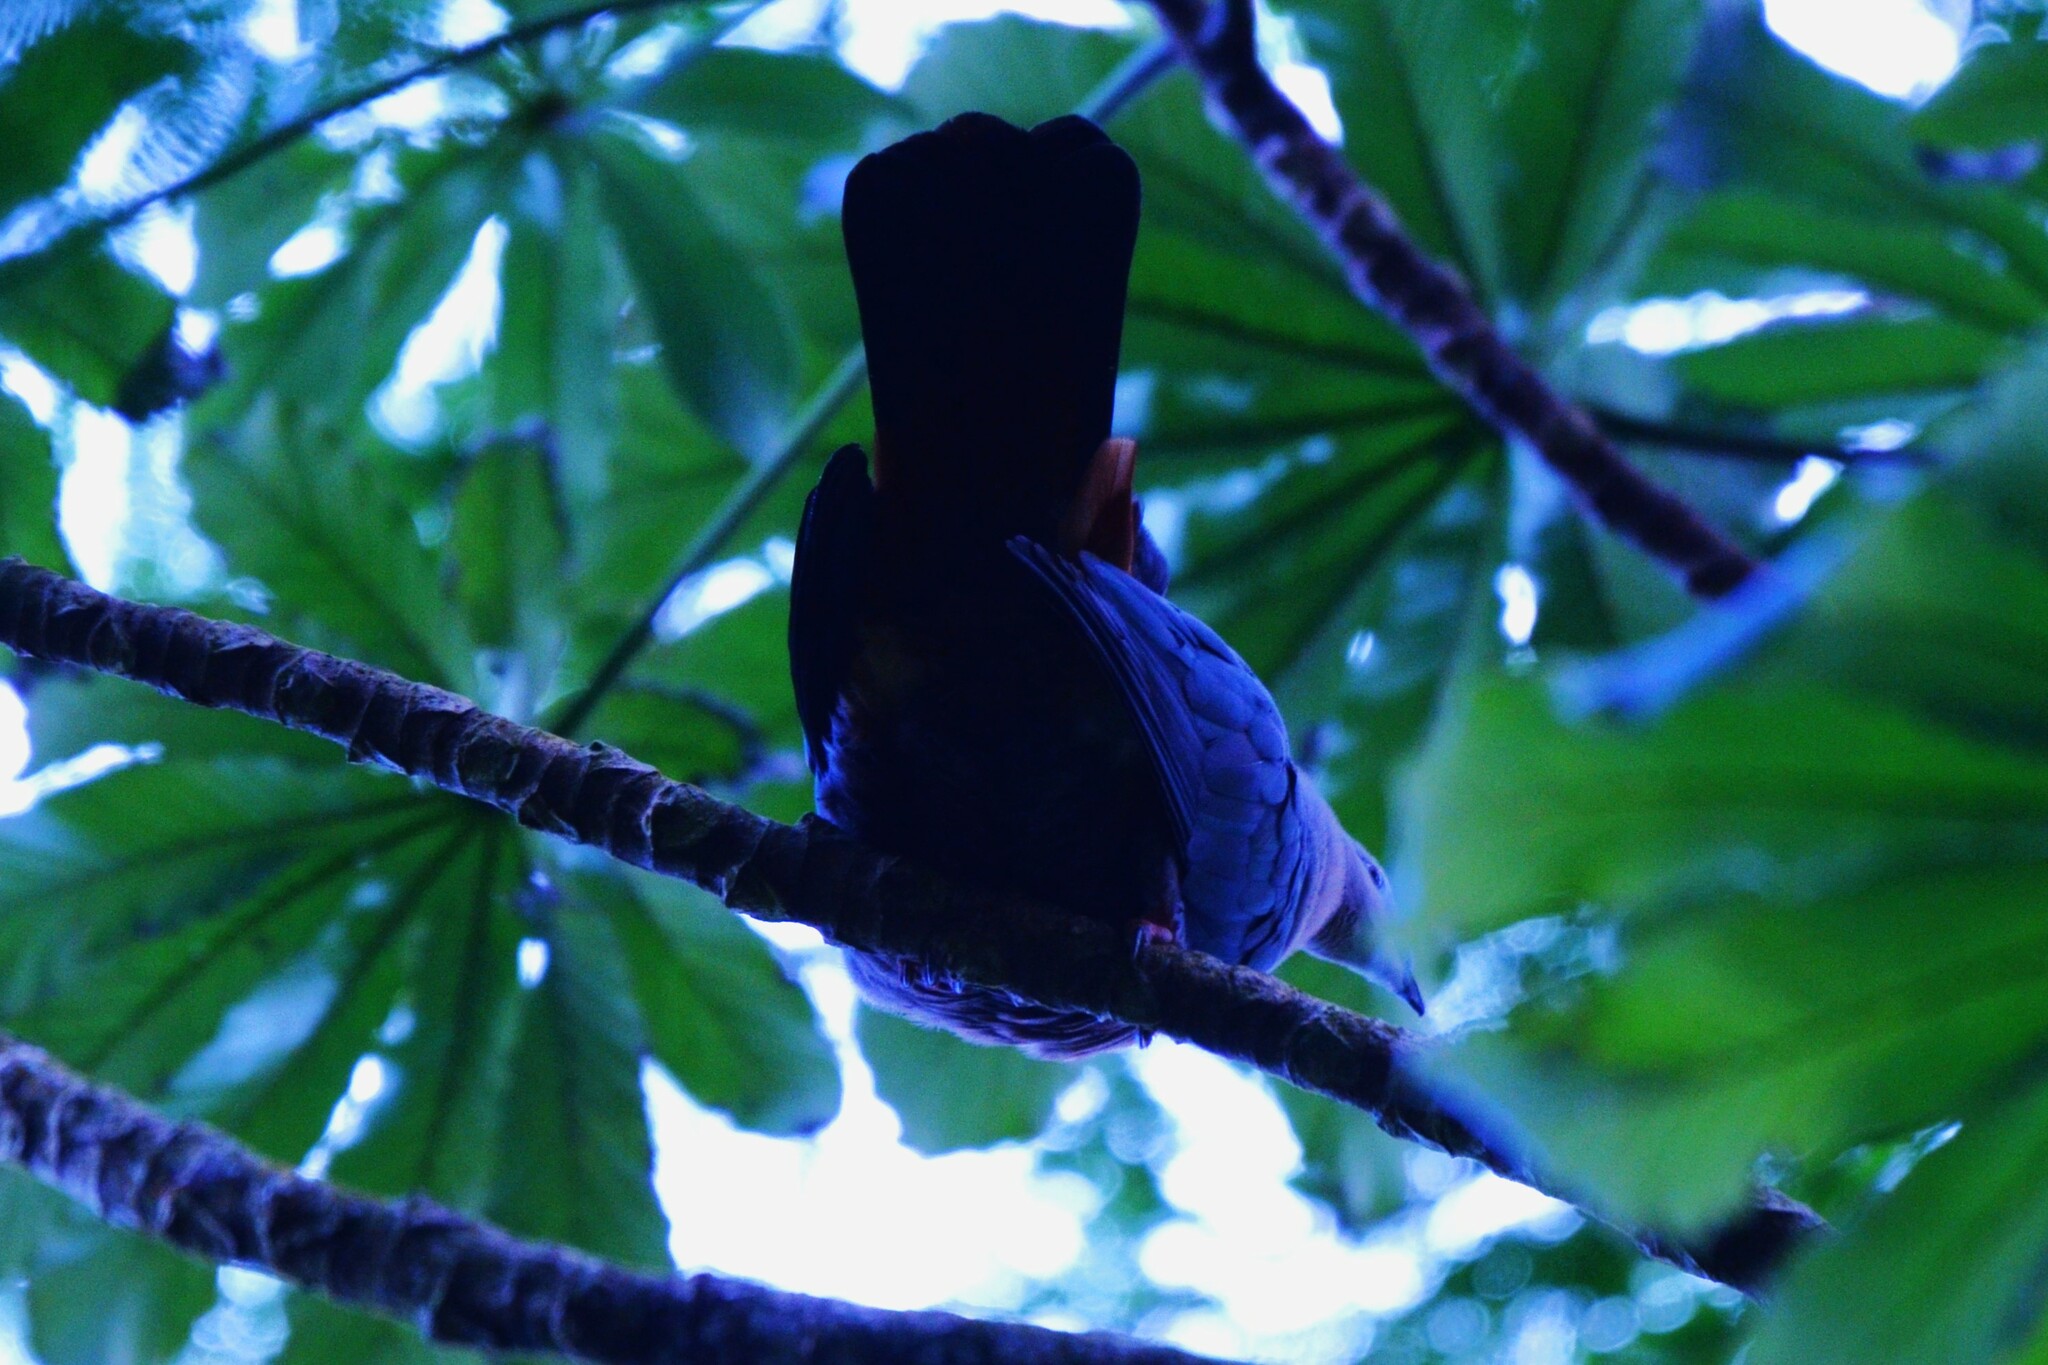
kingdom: Animalia
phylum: Chordata
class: Aves
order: Columbiformes
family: Columbidae
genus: Ducula
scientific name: Ducula pacifica
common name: Pacific imperial-pigeon
